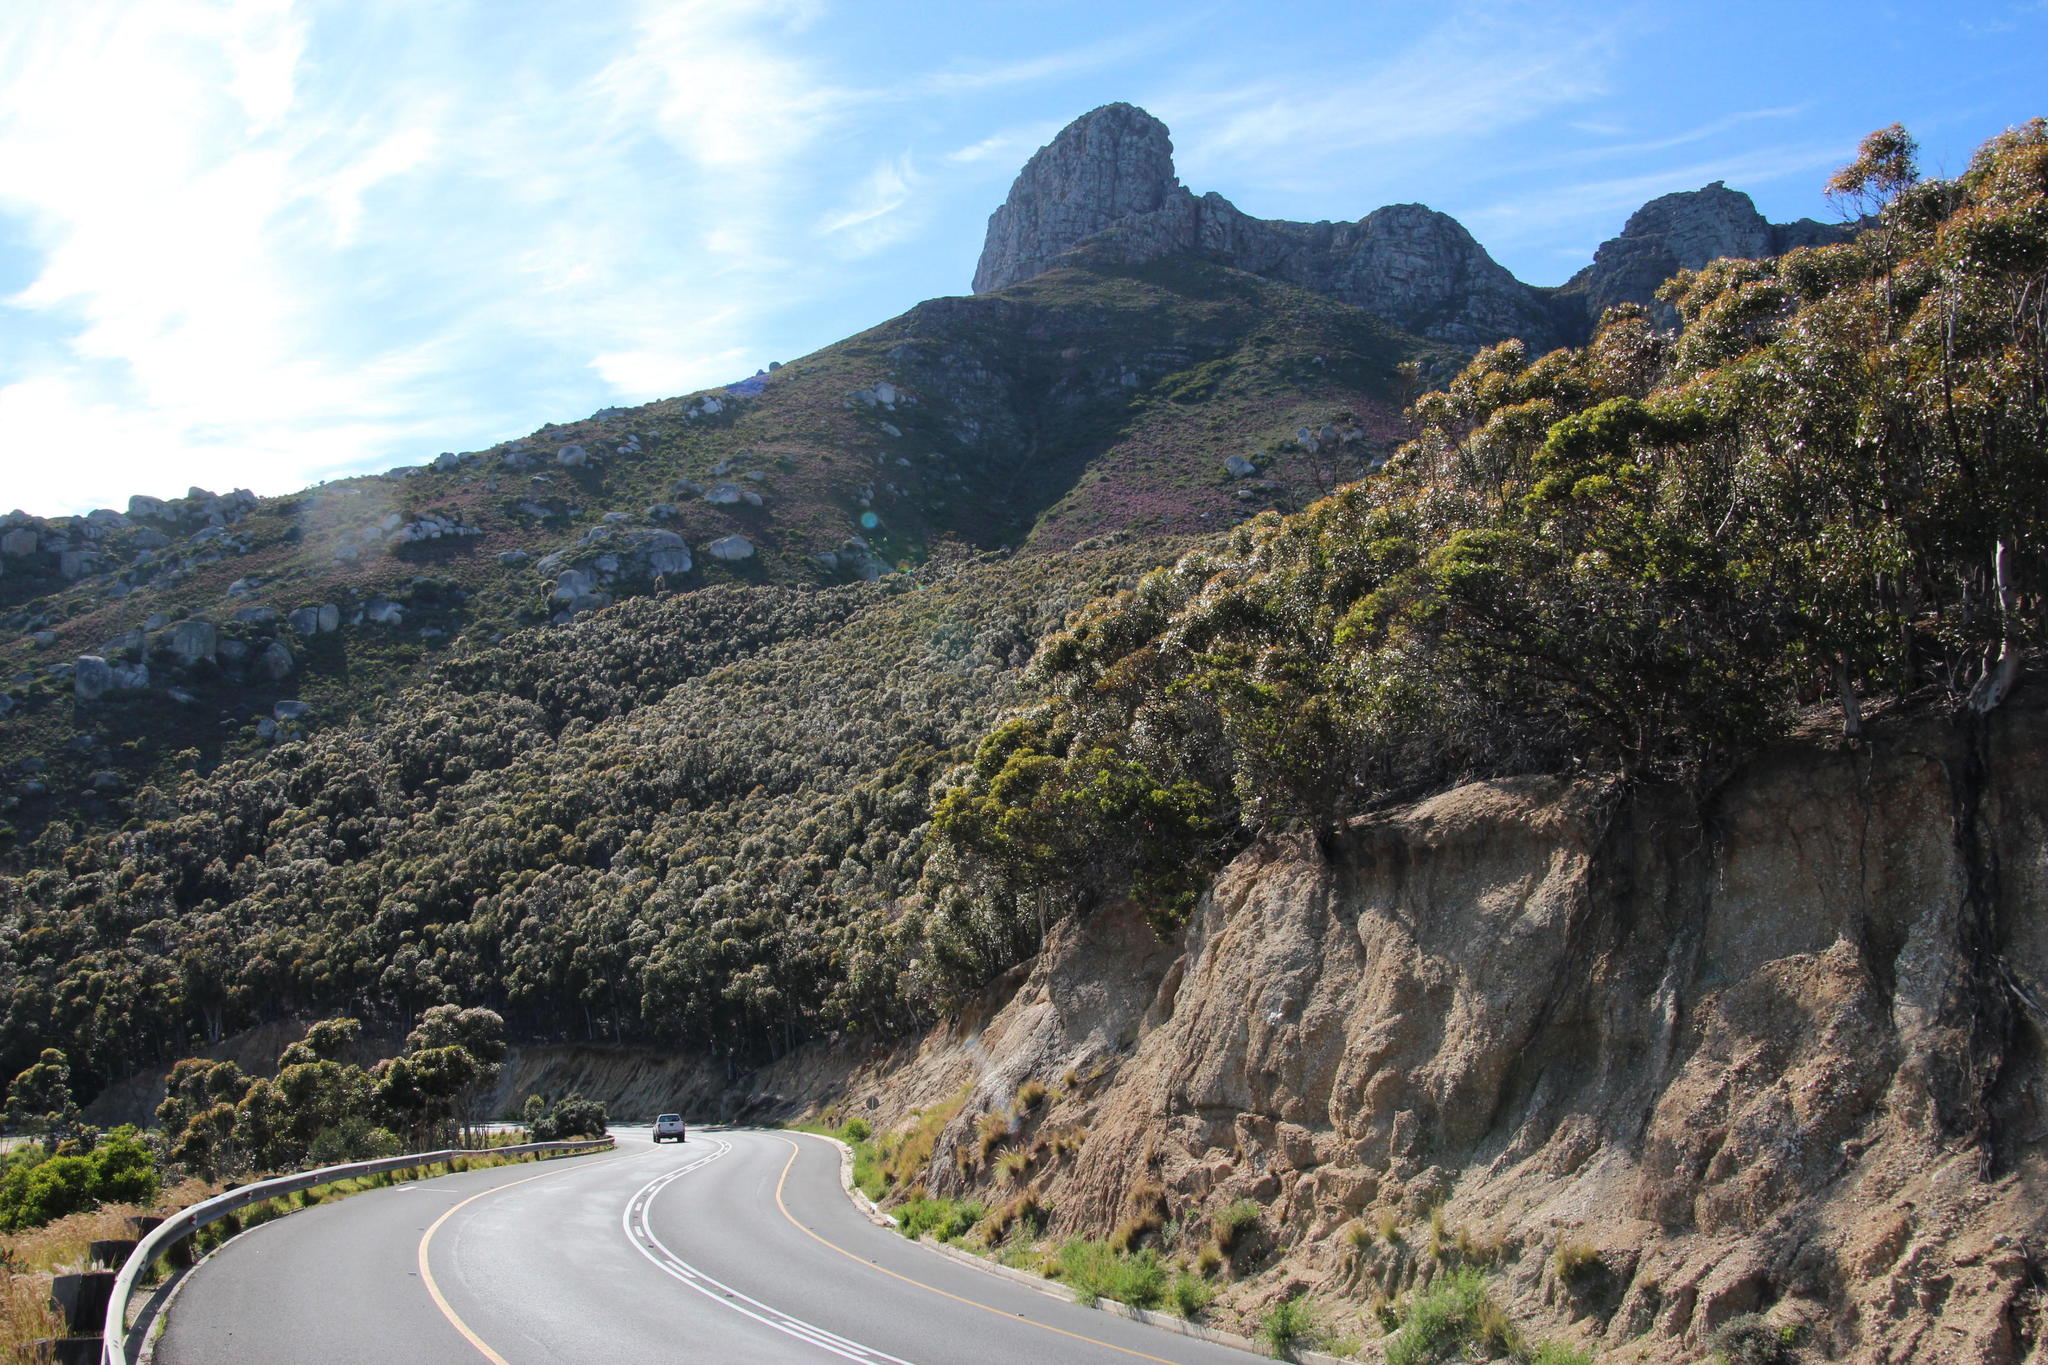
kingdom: Plantae
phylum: Tracheophyta
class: Magnoliopsida
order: Myrtales
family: Myrtaceae
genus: Eucalyptus
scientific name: Eucalyptus conferruminata
